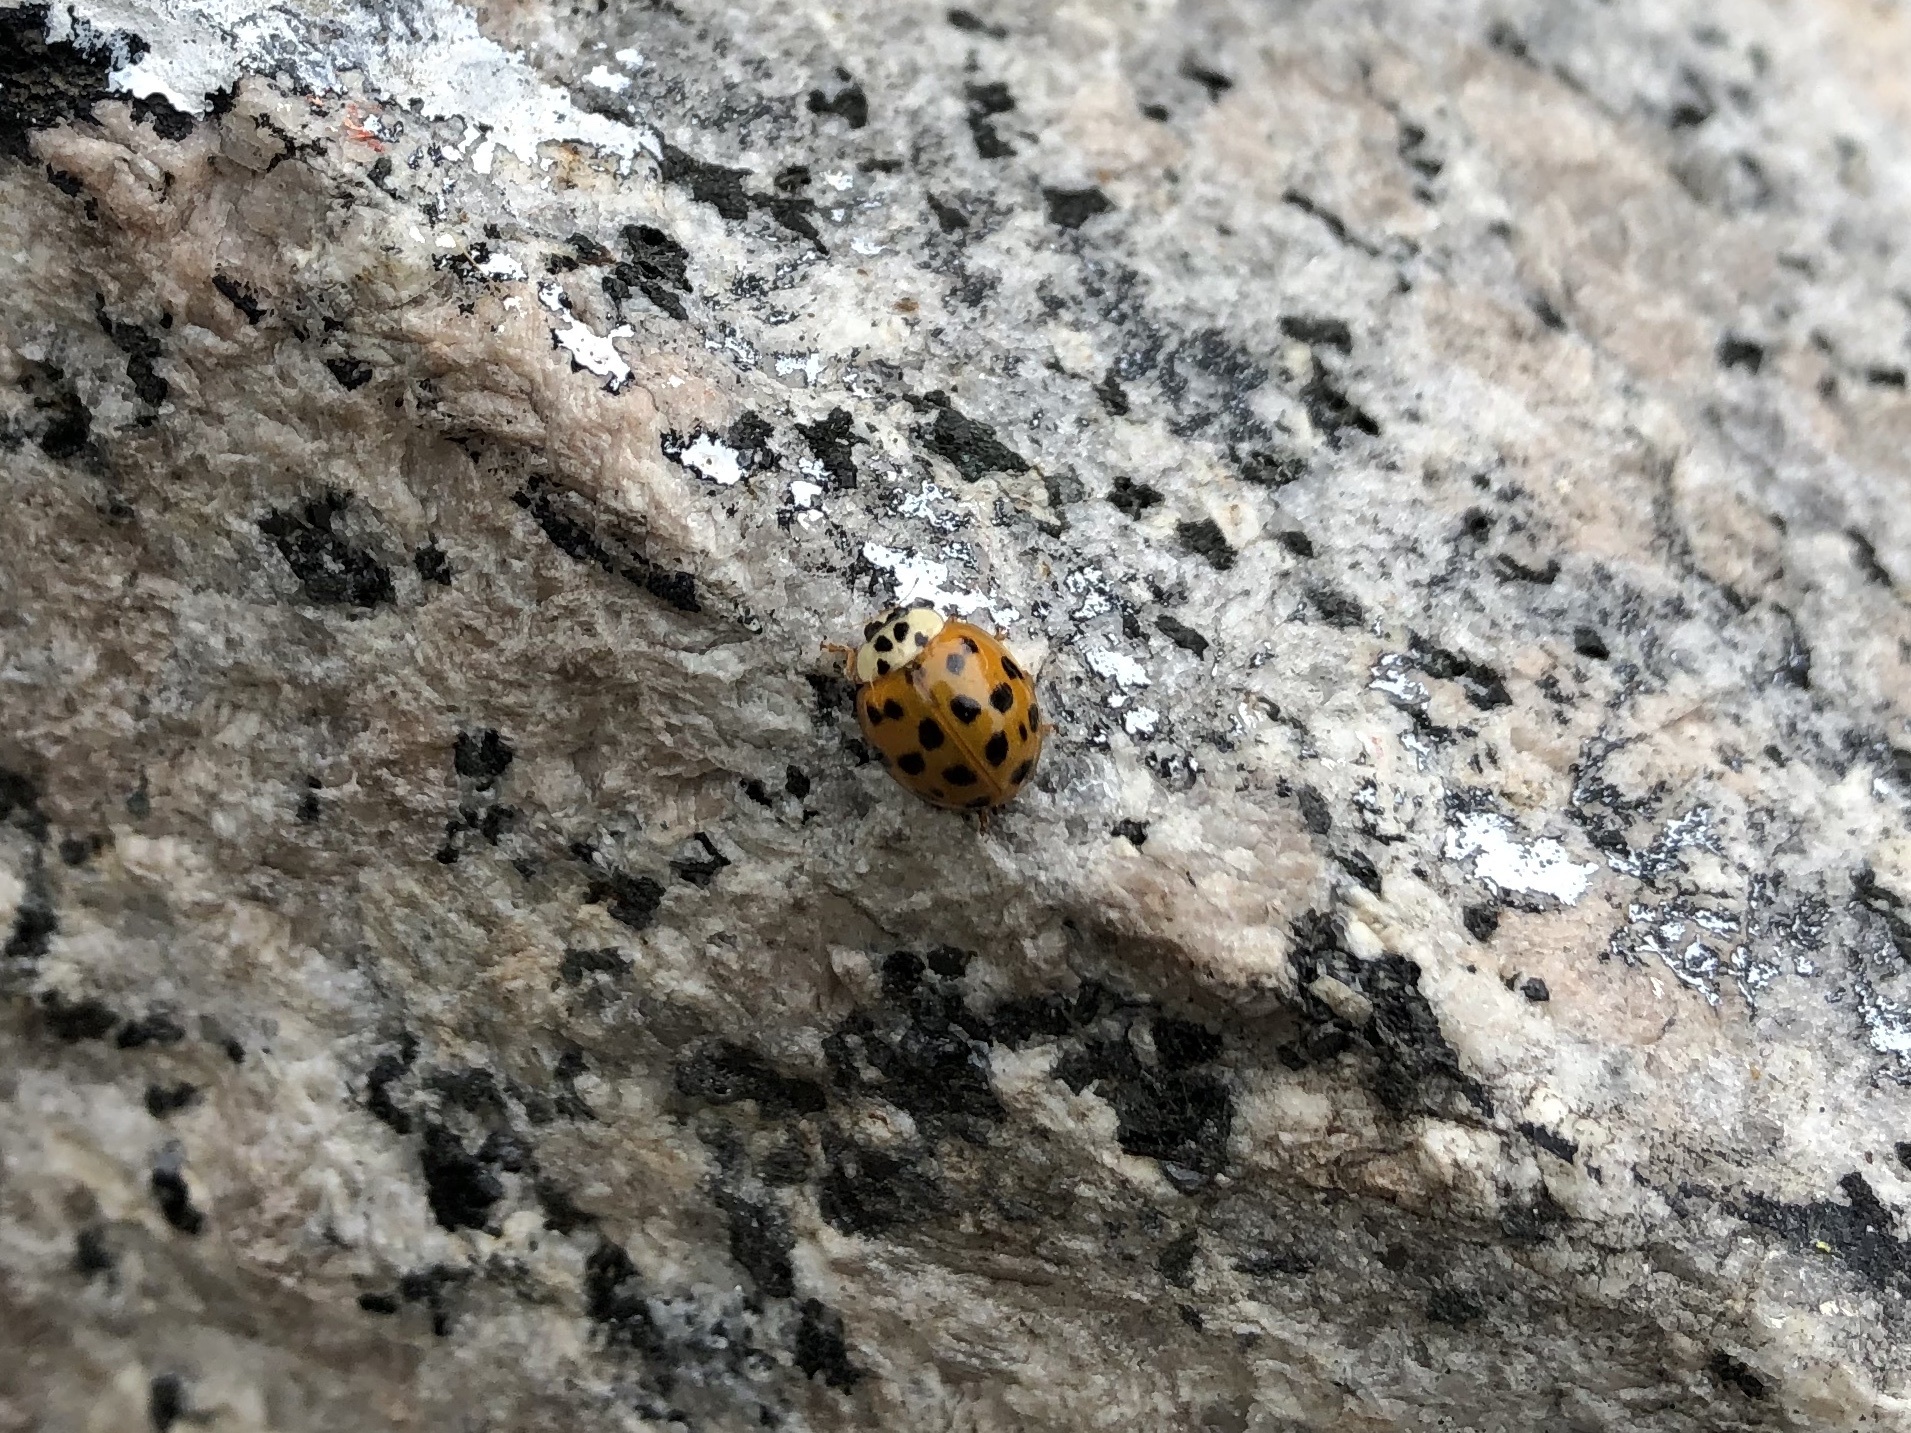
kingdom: Animalia
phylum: Arthropoda
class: Insecta
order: Coleoptera
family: Coccinellidae
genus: Harmonia
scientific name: Harmonia axyridis
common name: Harlequin ladybird
